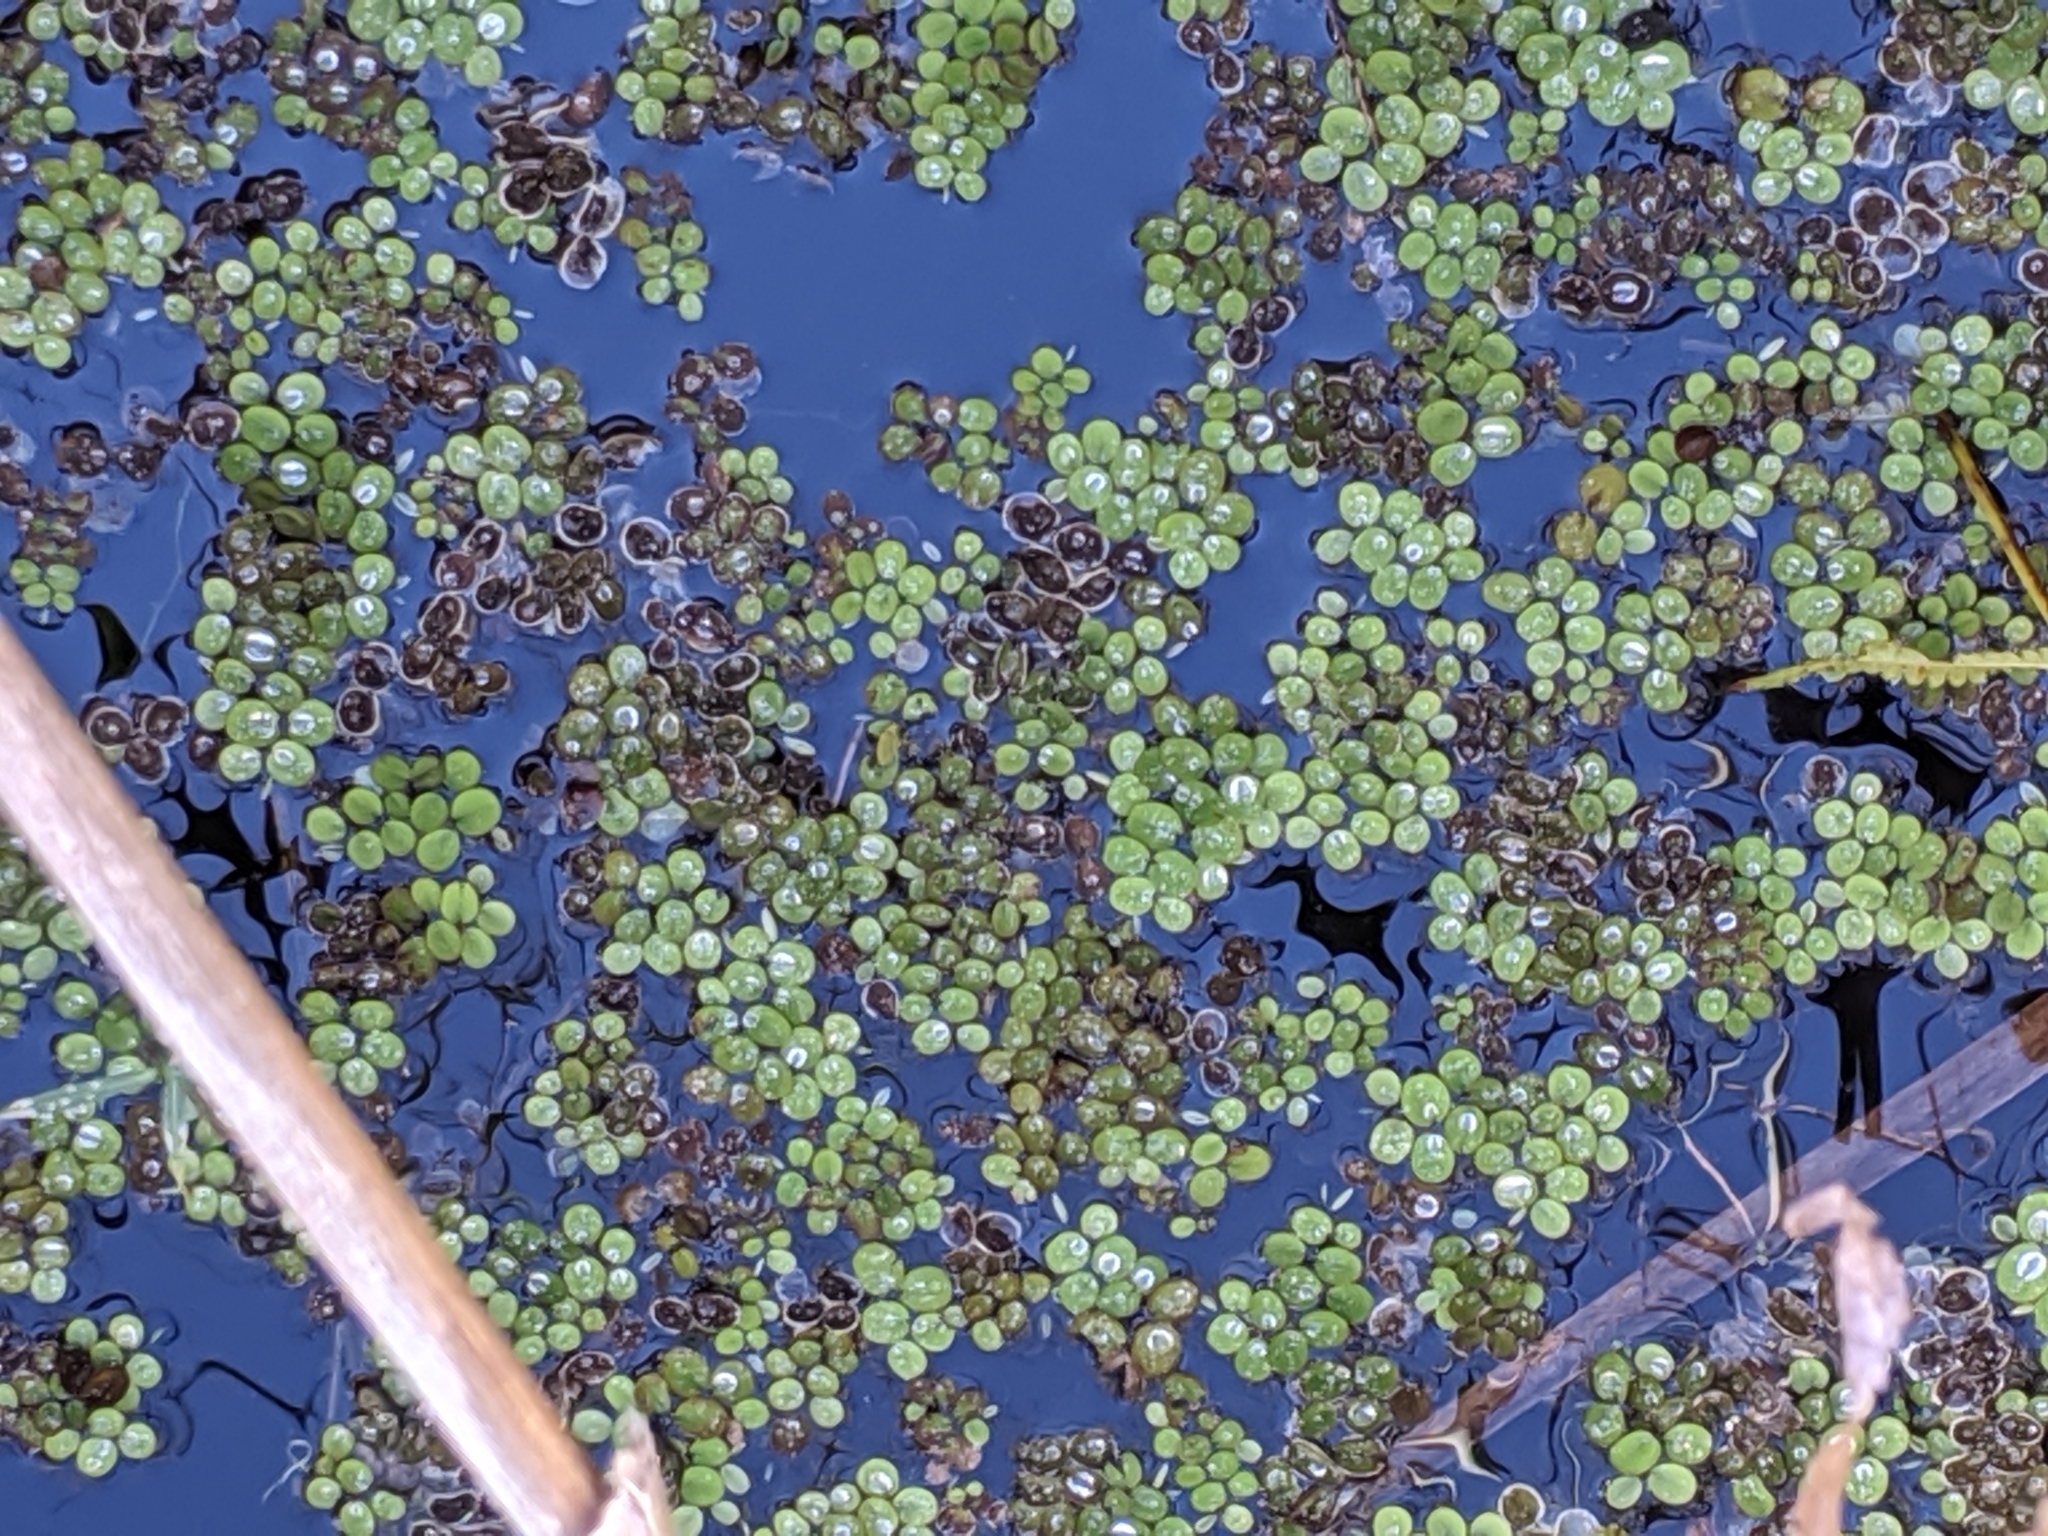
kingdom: Plantae
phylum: Tracheophyta
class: Polypodiopsida
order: Salviniales
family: Salviniaceae
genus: Salvinia
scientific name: Salvinia minima
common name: Water spangles
